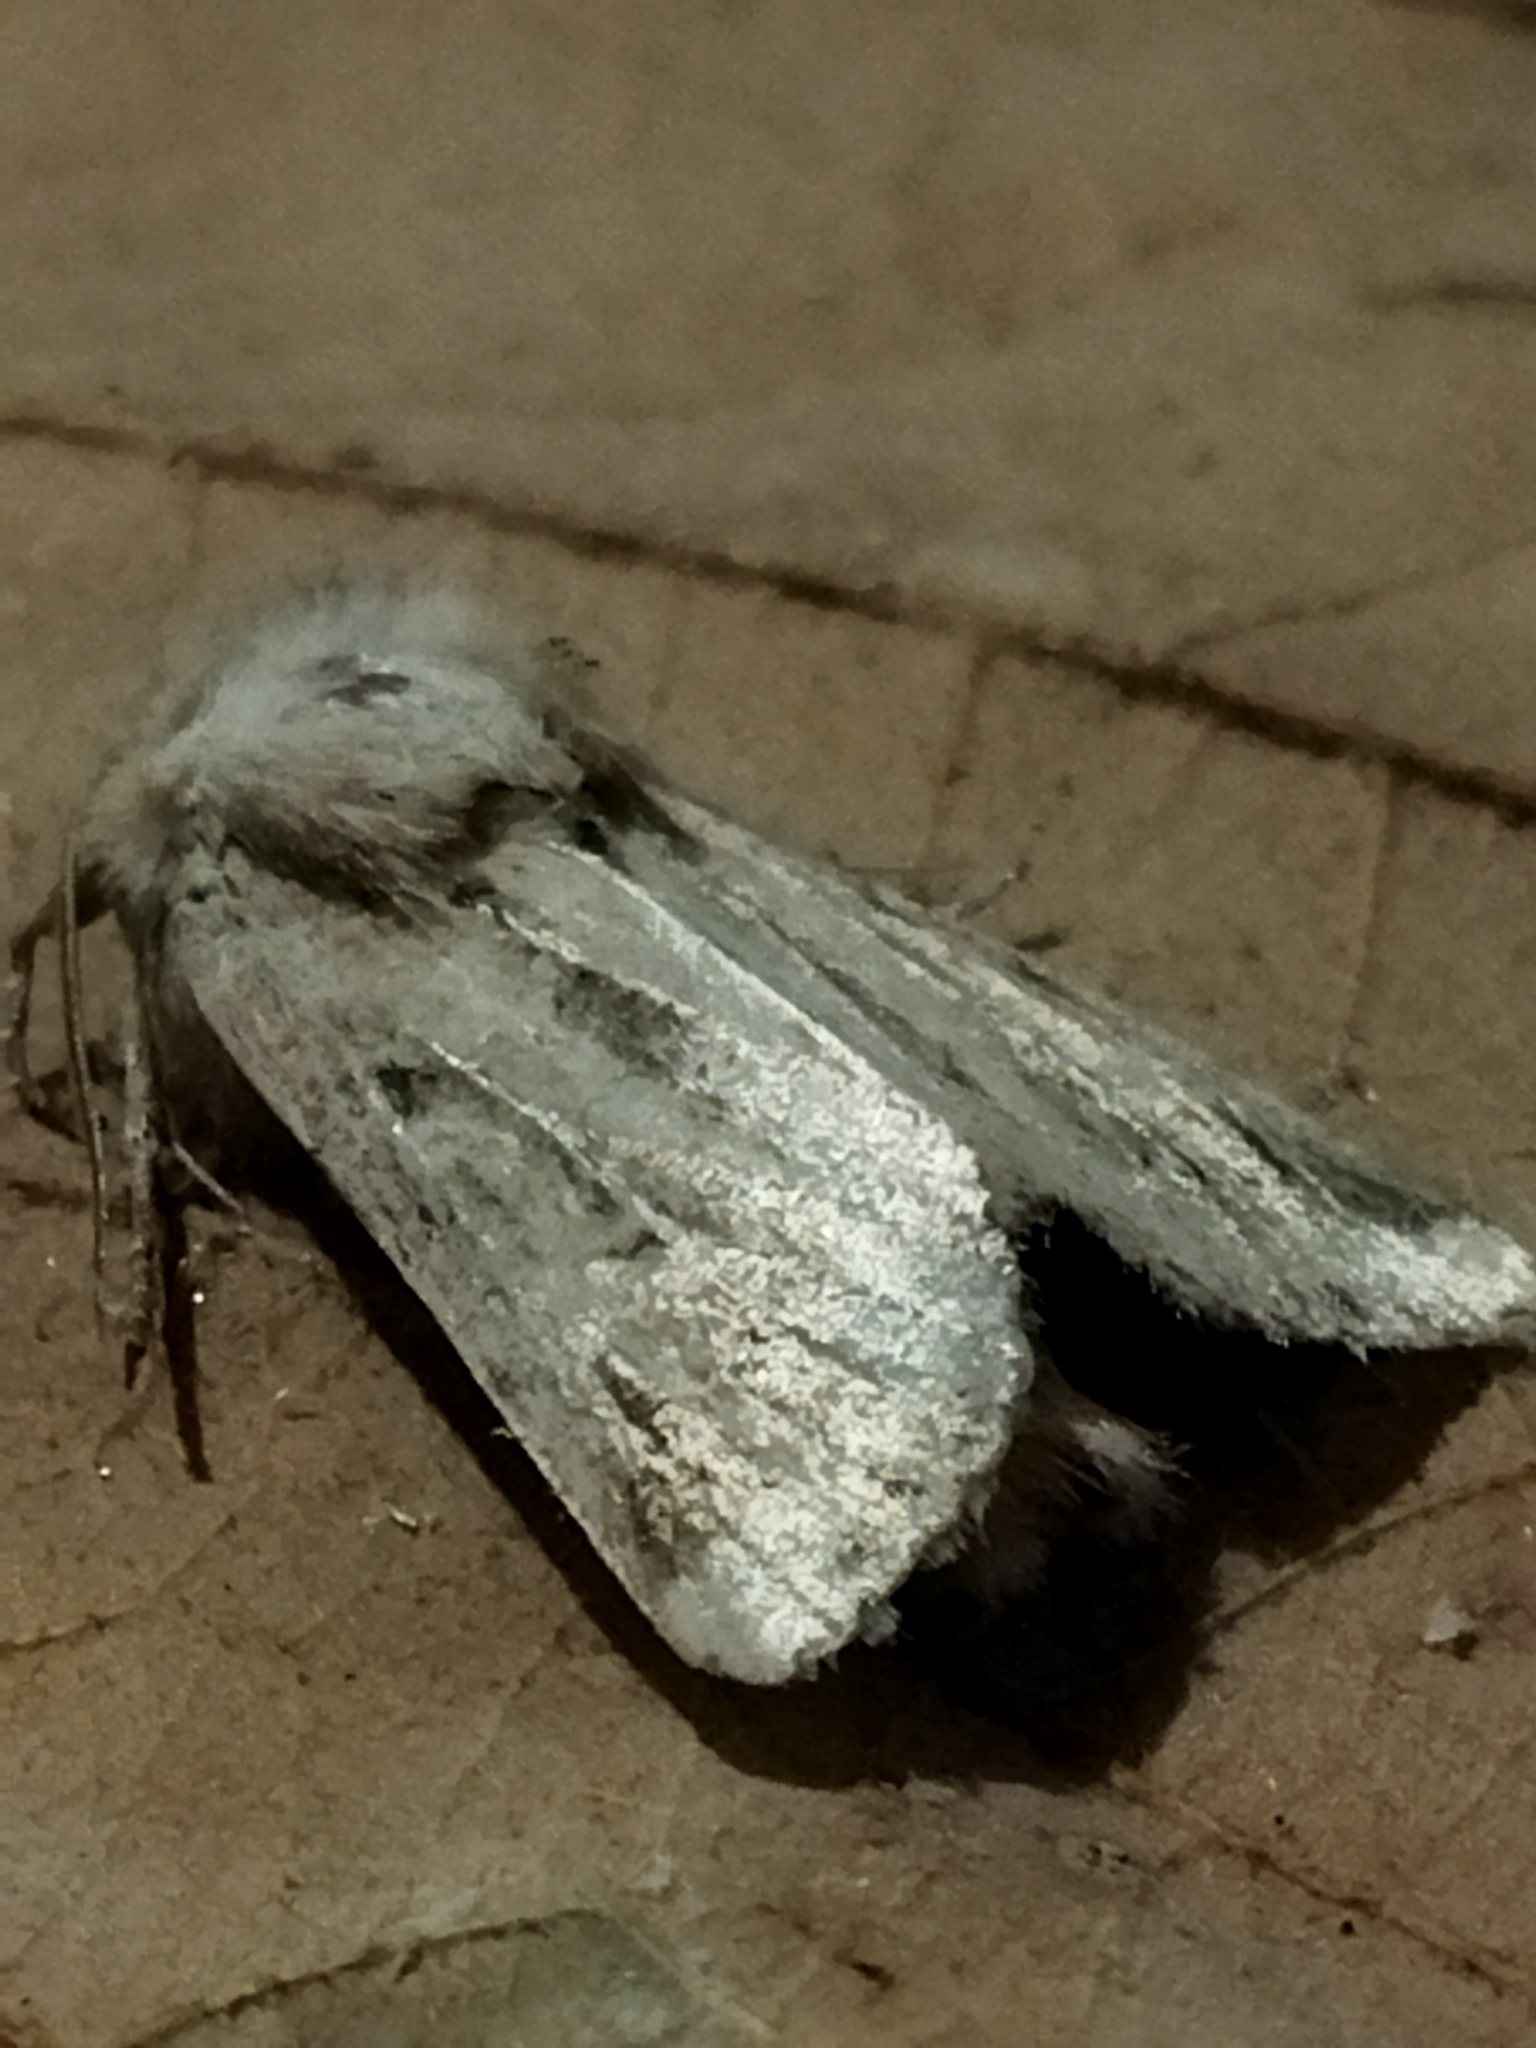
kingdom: Animalia
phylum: Arthropoda
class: Insecta
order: Lepidoptera
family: Noctuidae
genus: Luperina
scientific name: Luperina dumerilii
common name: Dumeril's rustic
